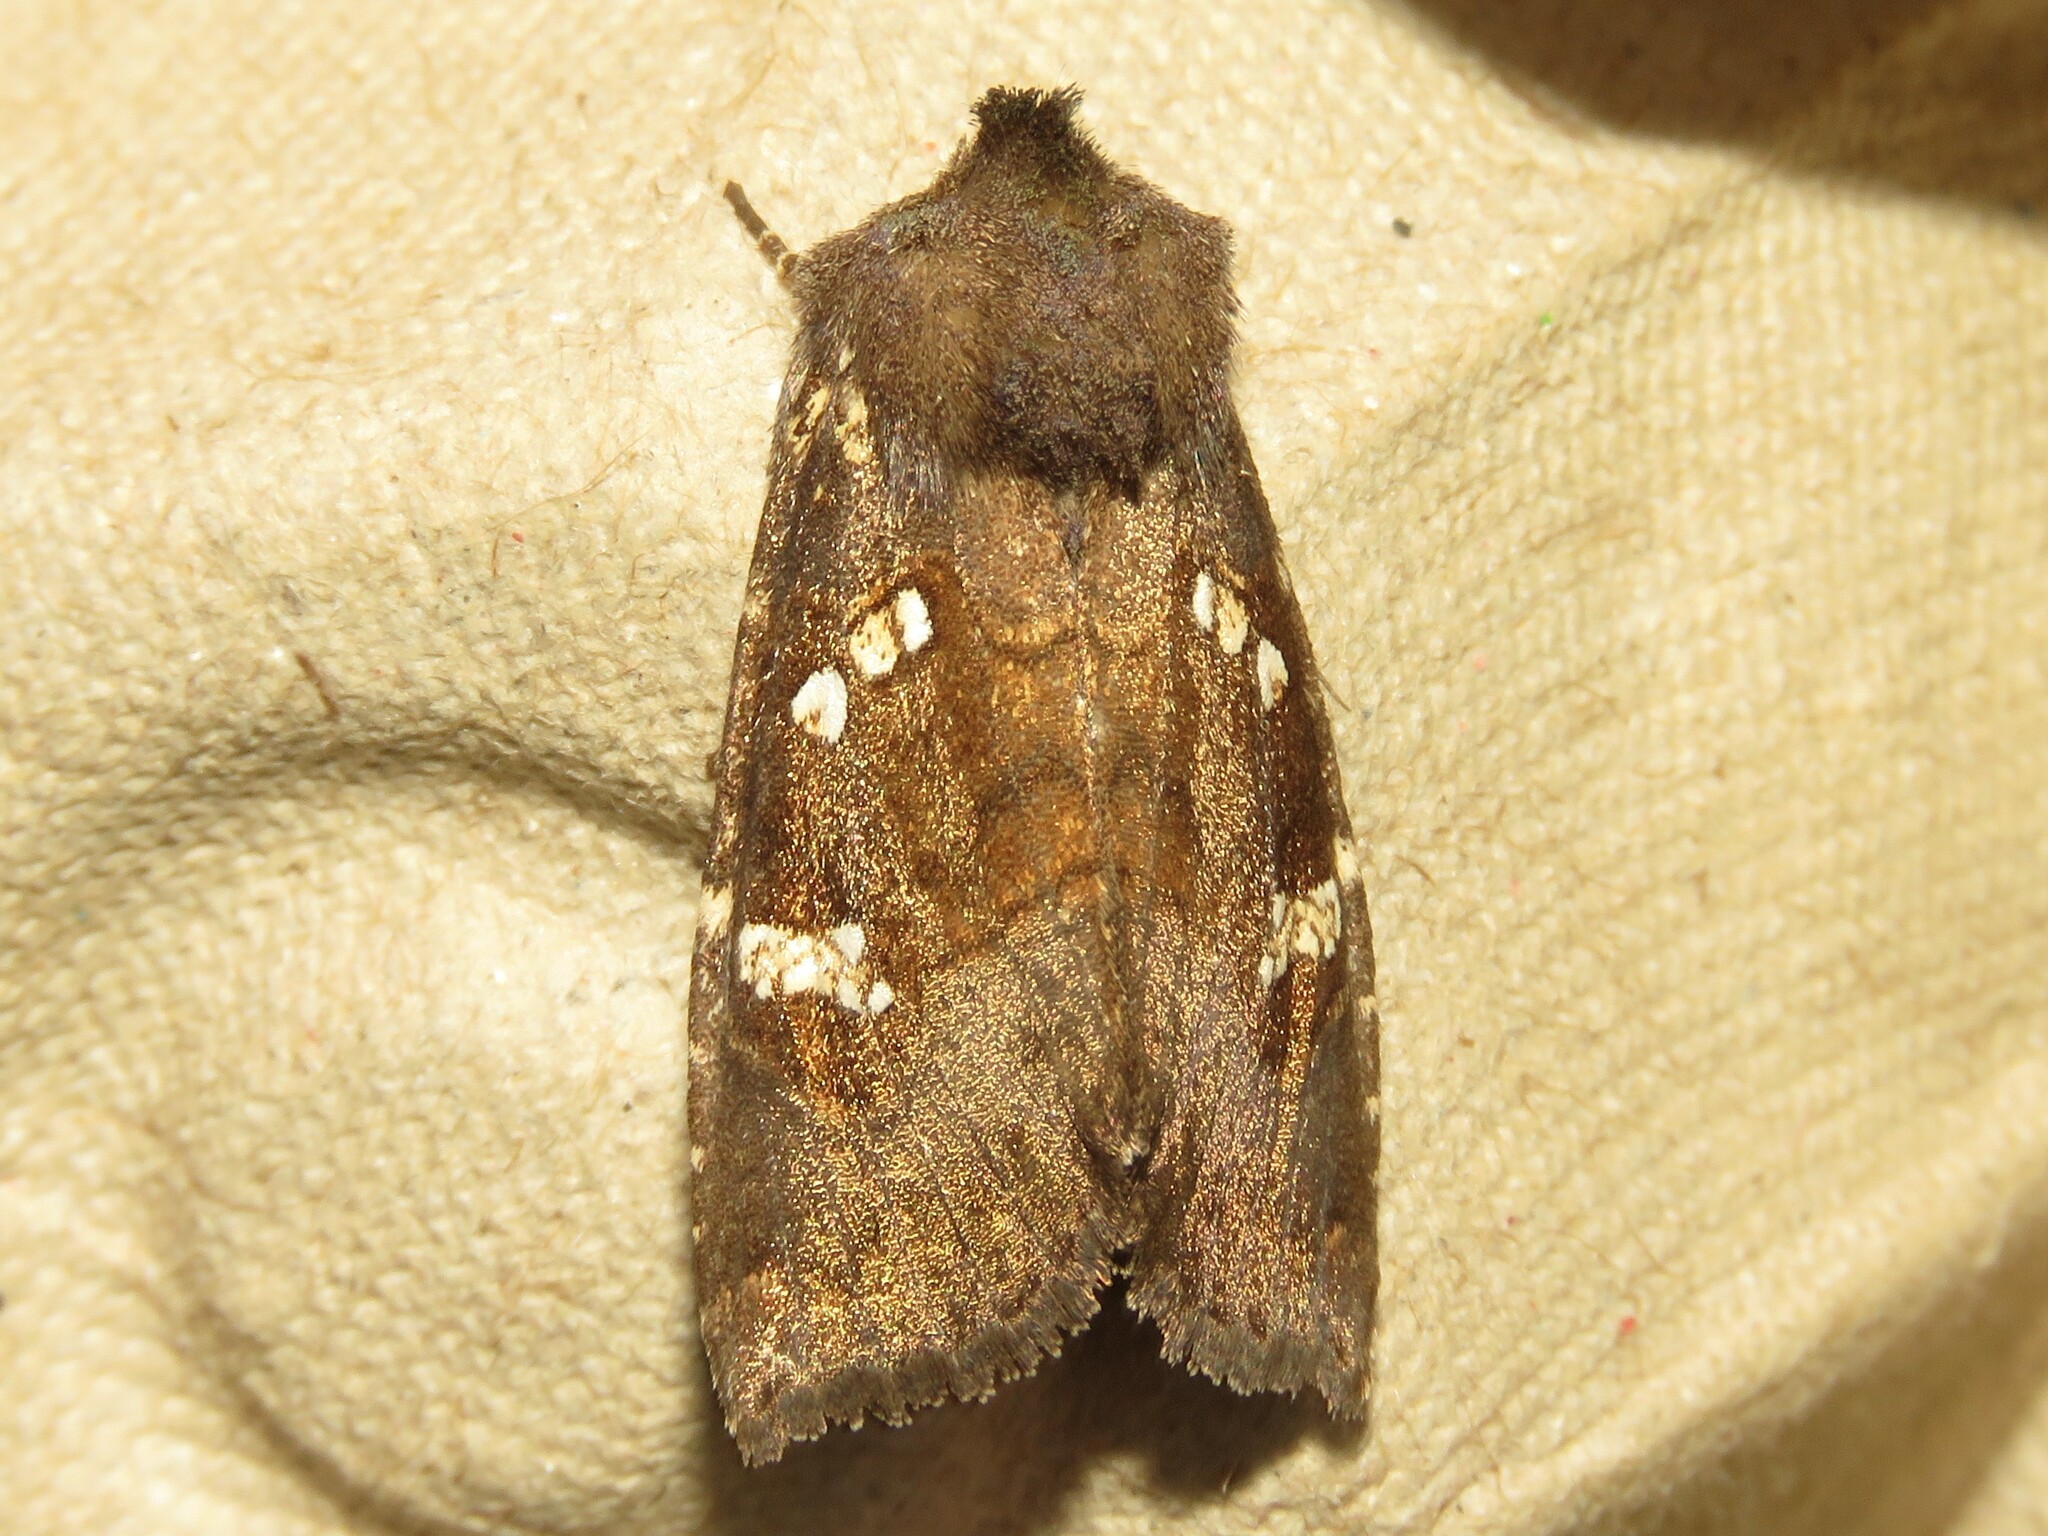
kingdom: Animalia
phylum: Arthropoda
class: Insecta
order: Lepidoptera
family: Noctuidae
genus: Papaipema
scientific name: Papaipema unimoda
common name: Meadow rue borer moth
